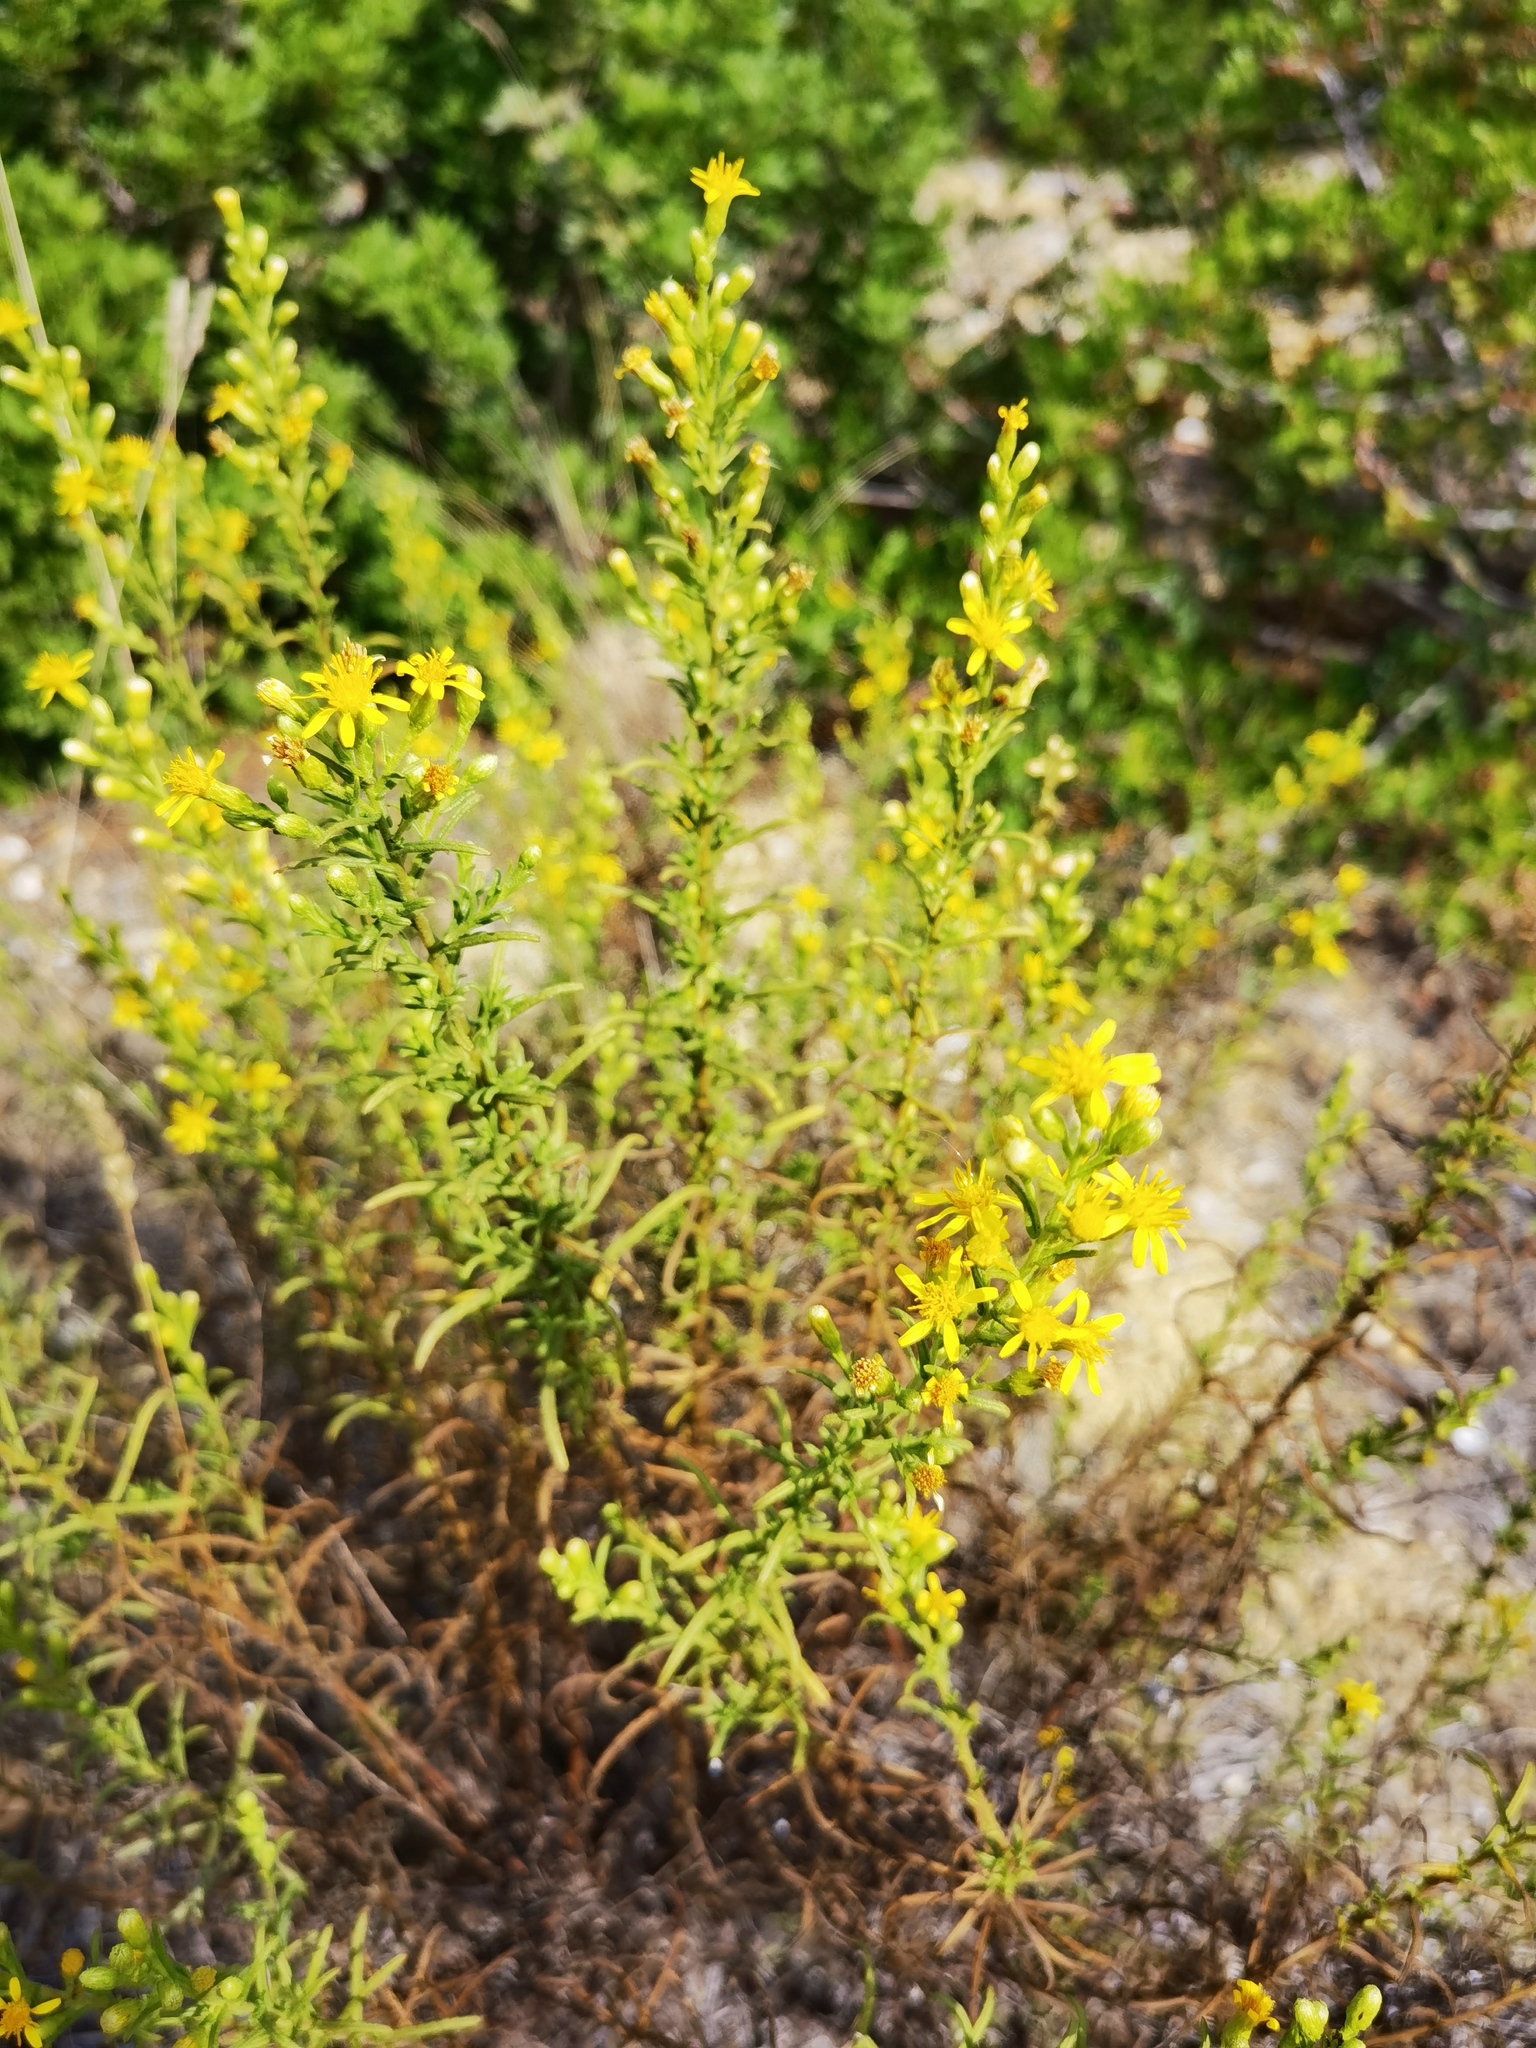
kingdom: Plantae
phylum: Tracheophyta
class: Magnoliopsida
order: Asterales
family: Asteraceae
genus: Dittrichia
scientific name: Dittrichia viscosa
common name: Woody fleabane
